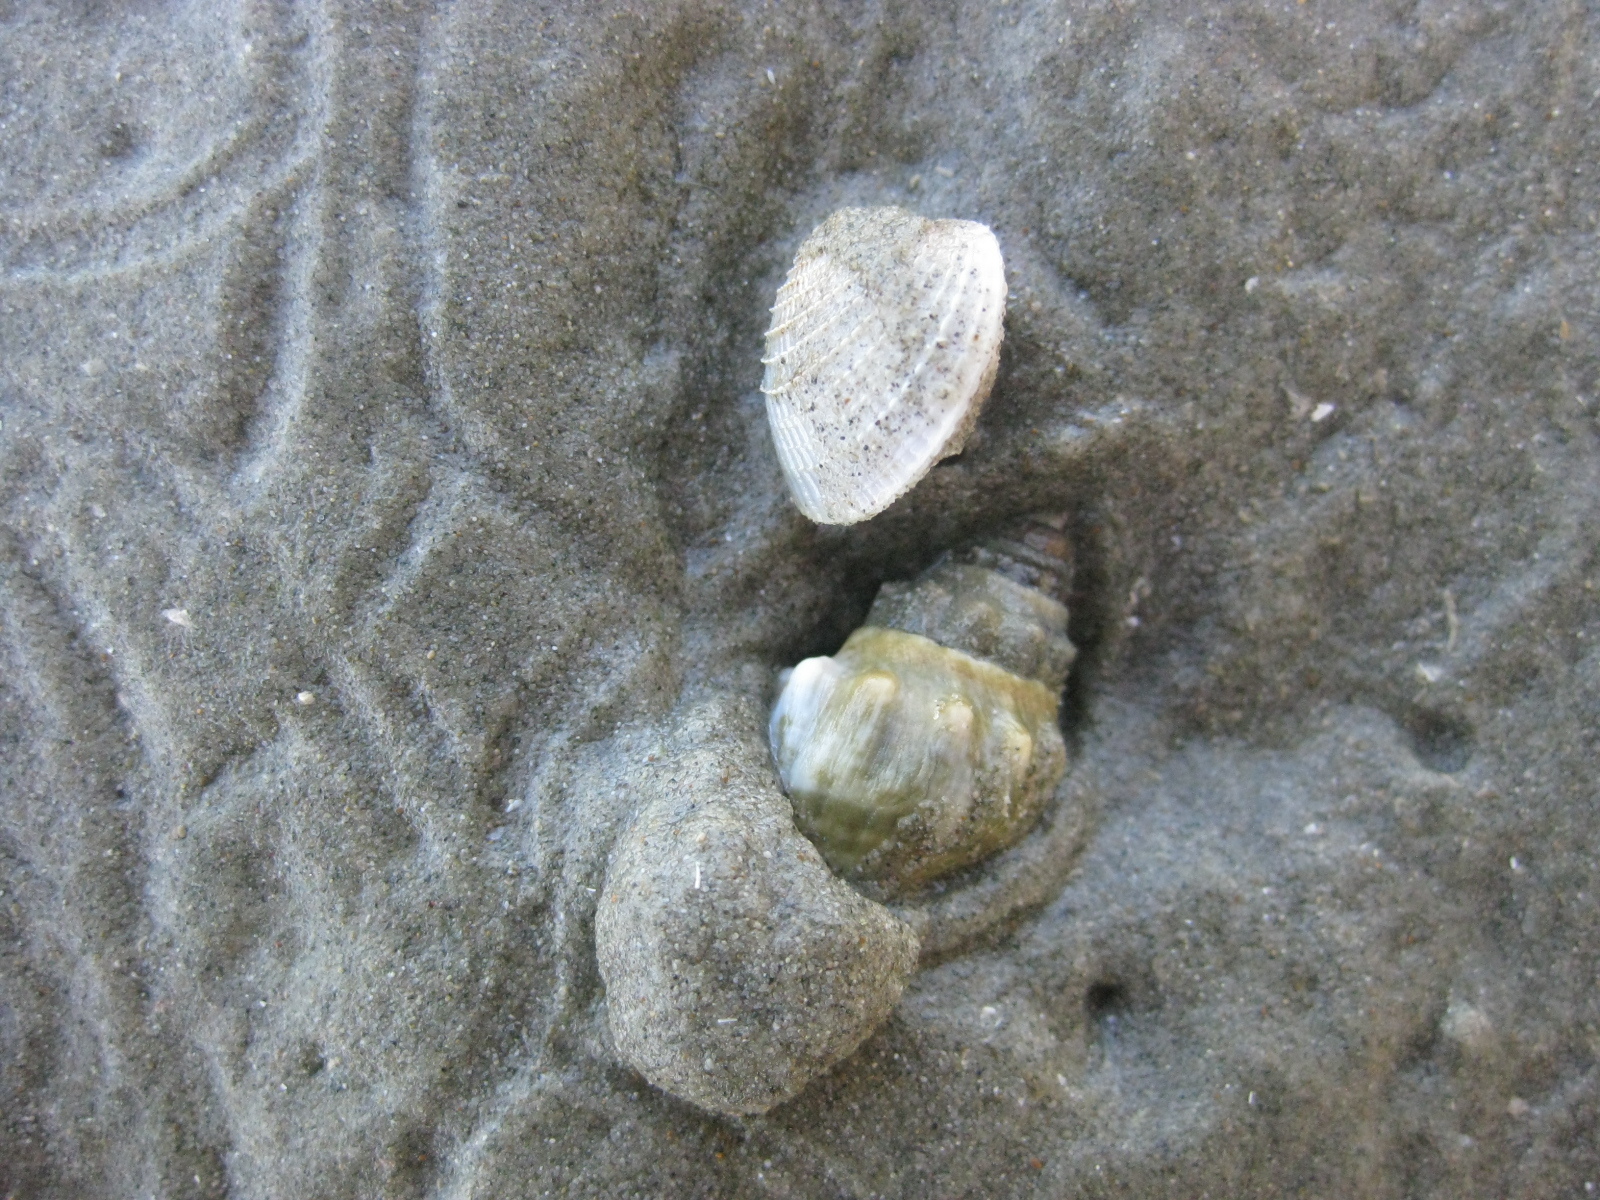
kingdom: Animalia
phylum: Mollusca
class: Gastropoda
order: Neogastropoda
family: Cominellidae
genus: Cominella
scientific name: Cominella glandiformis
